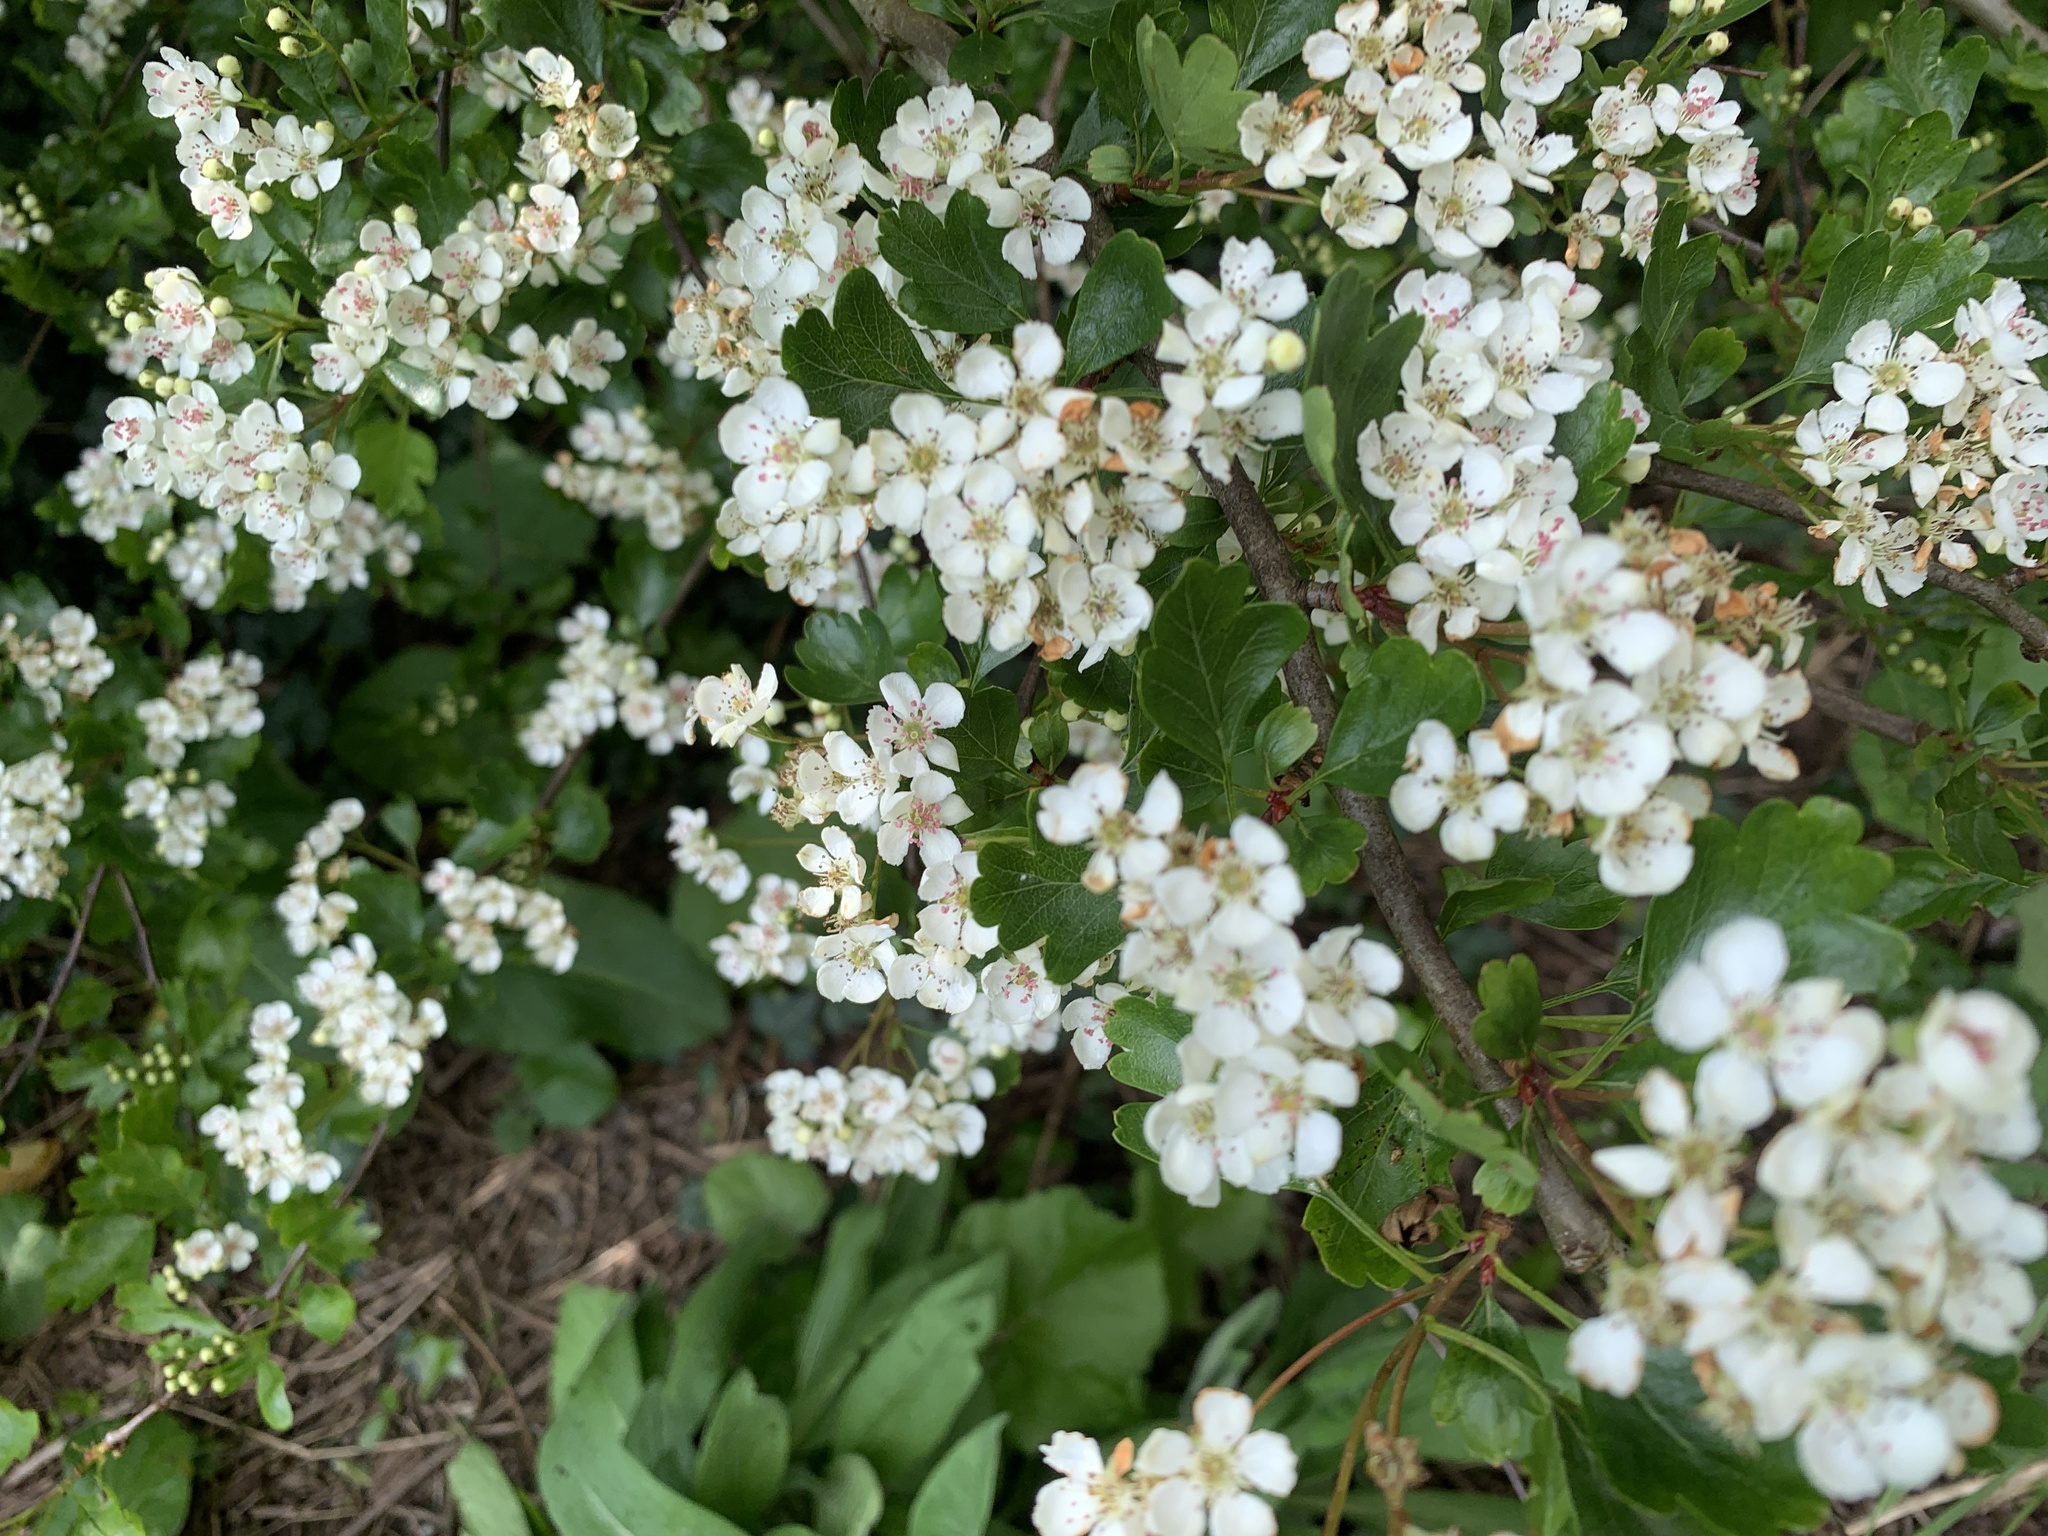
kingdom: Plantae
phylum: Tracheophyta
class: Magnoliopsida
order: Rosales
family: Rosaceae
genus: Crataegus
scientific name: Crataegus monogyna
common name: Hawthorn
